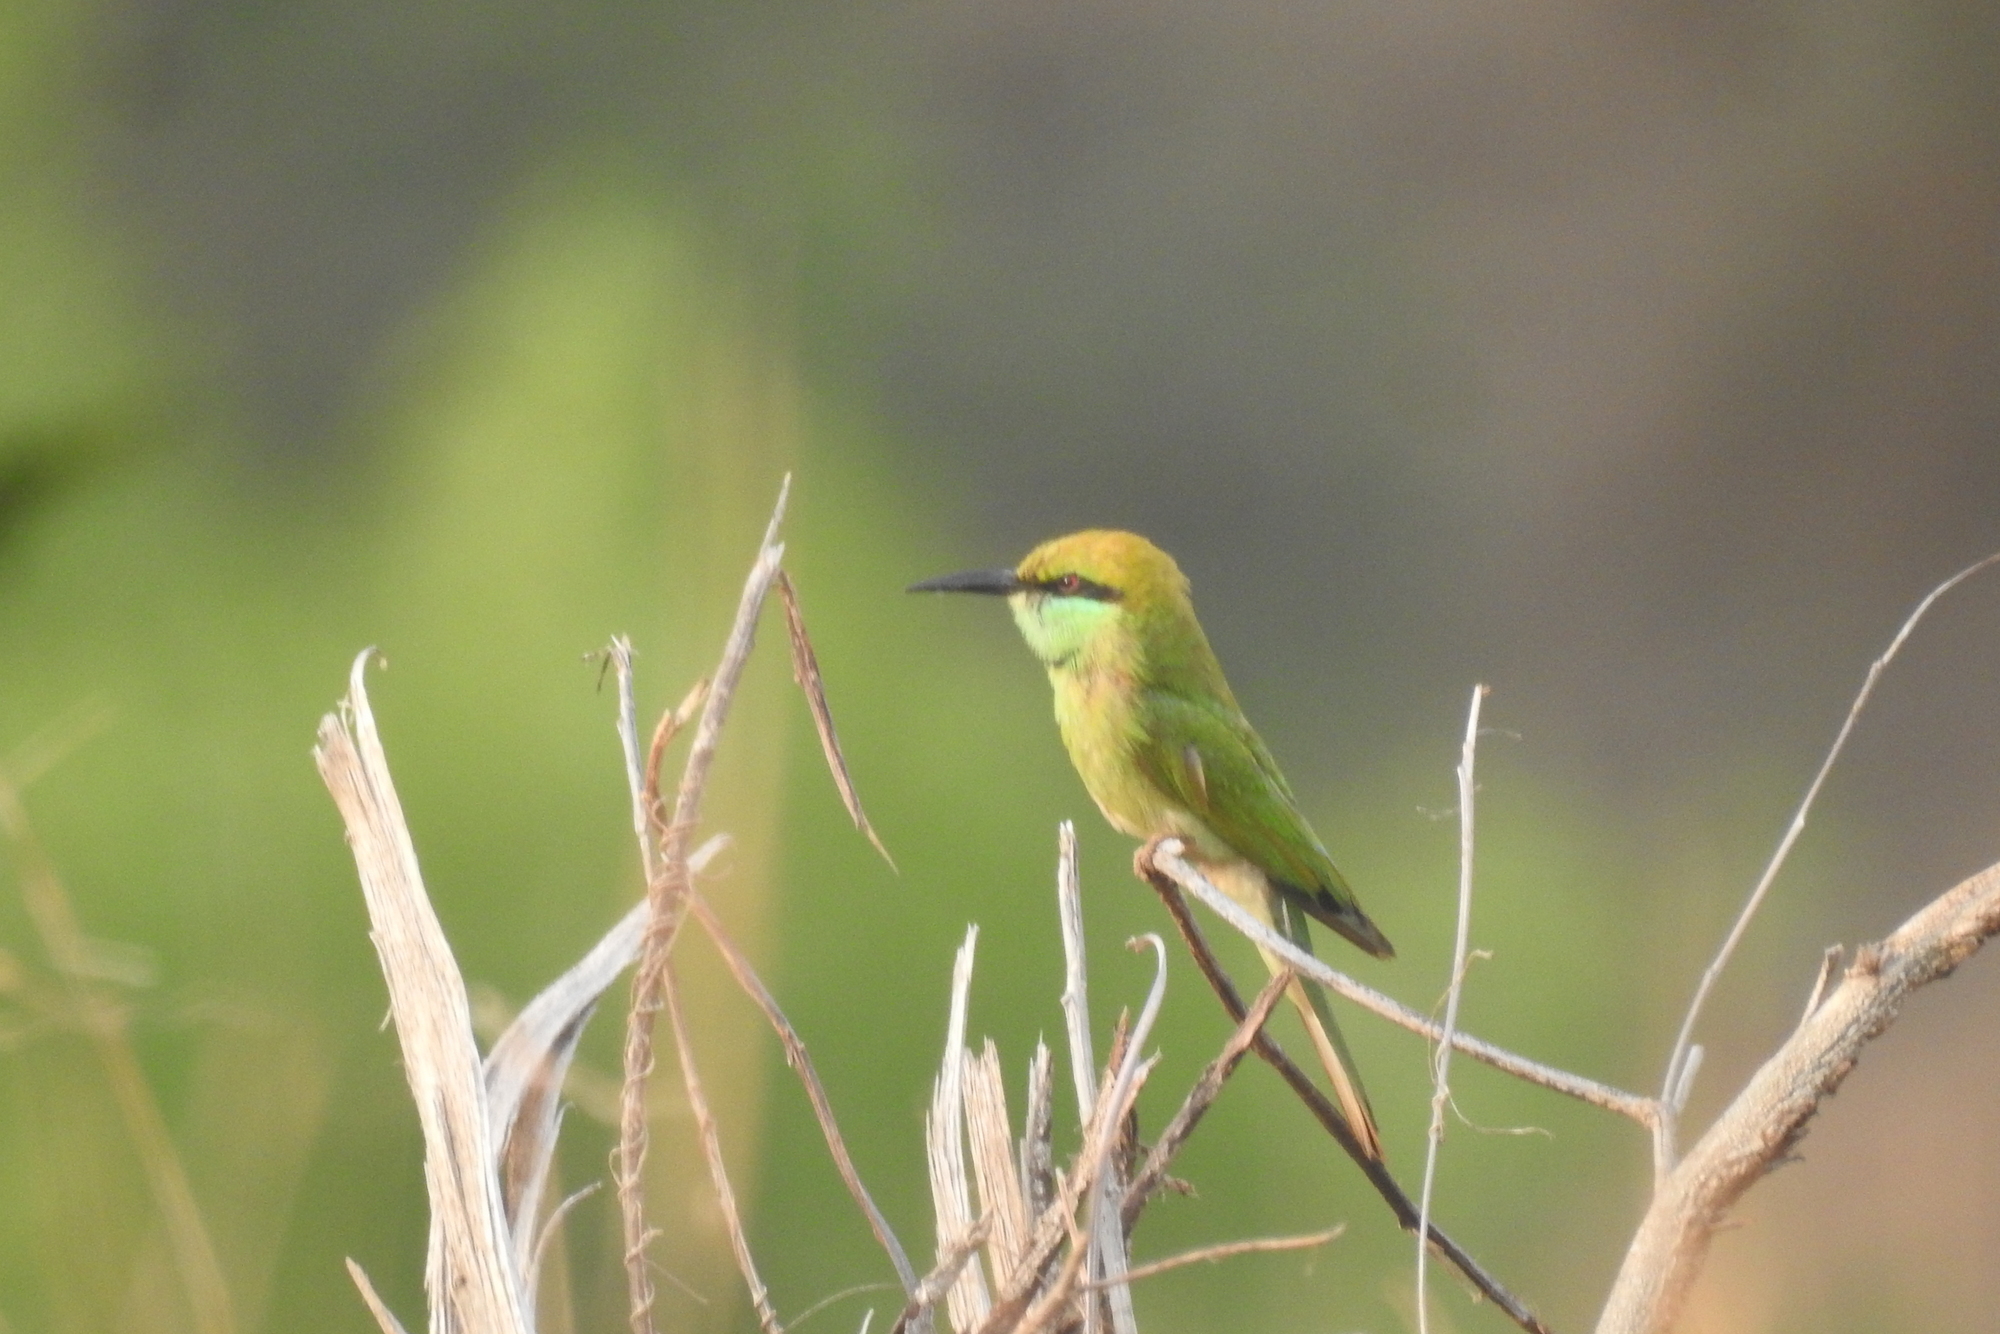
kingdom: Animalia
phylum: Chordata
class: Aves
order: Coraciiformes
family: Meropidae
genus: Merops
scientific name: Merops orientalis
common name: Green bee-eater
